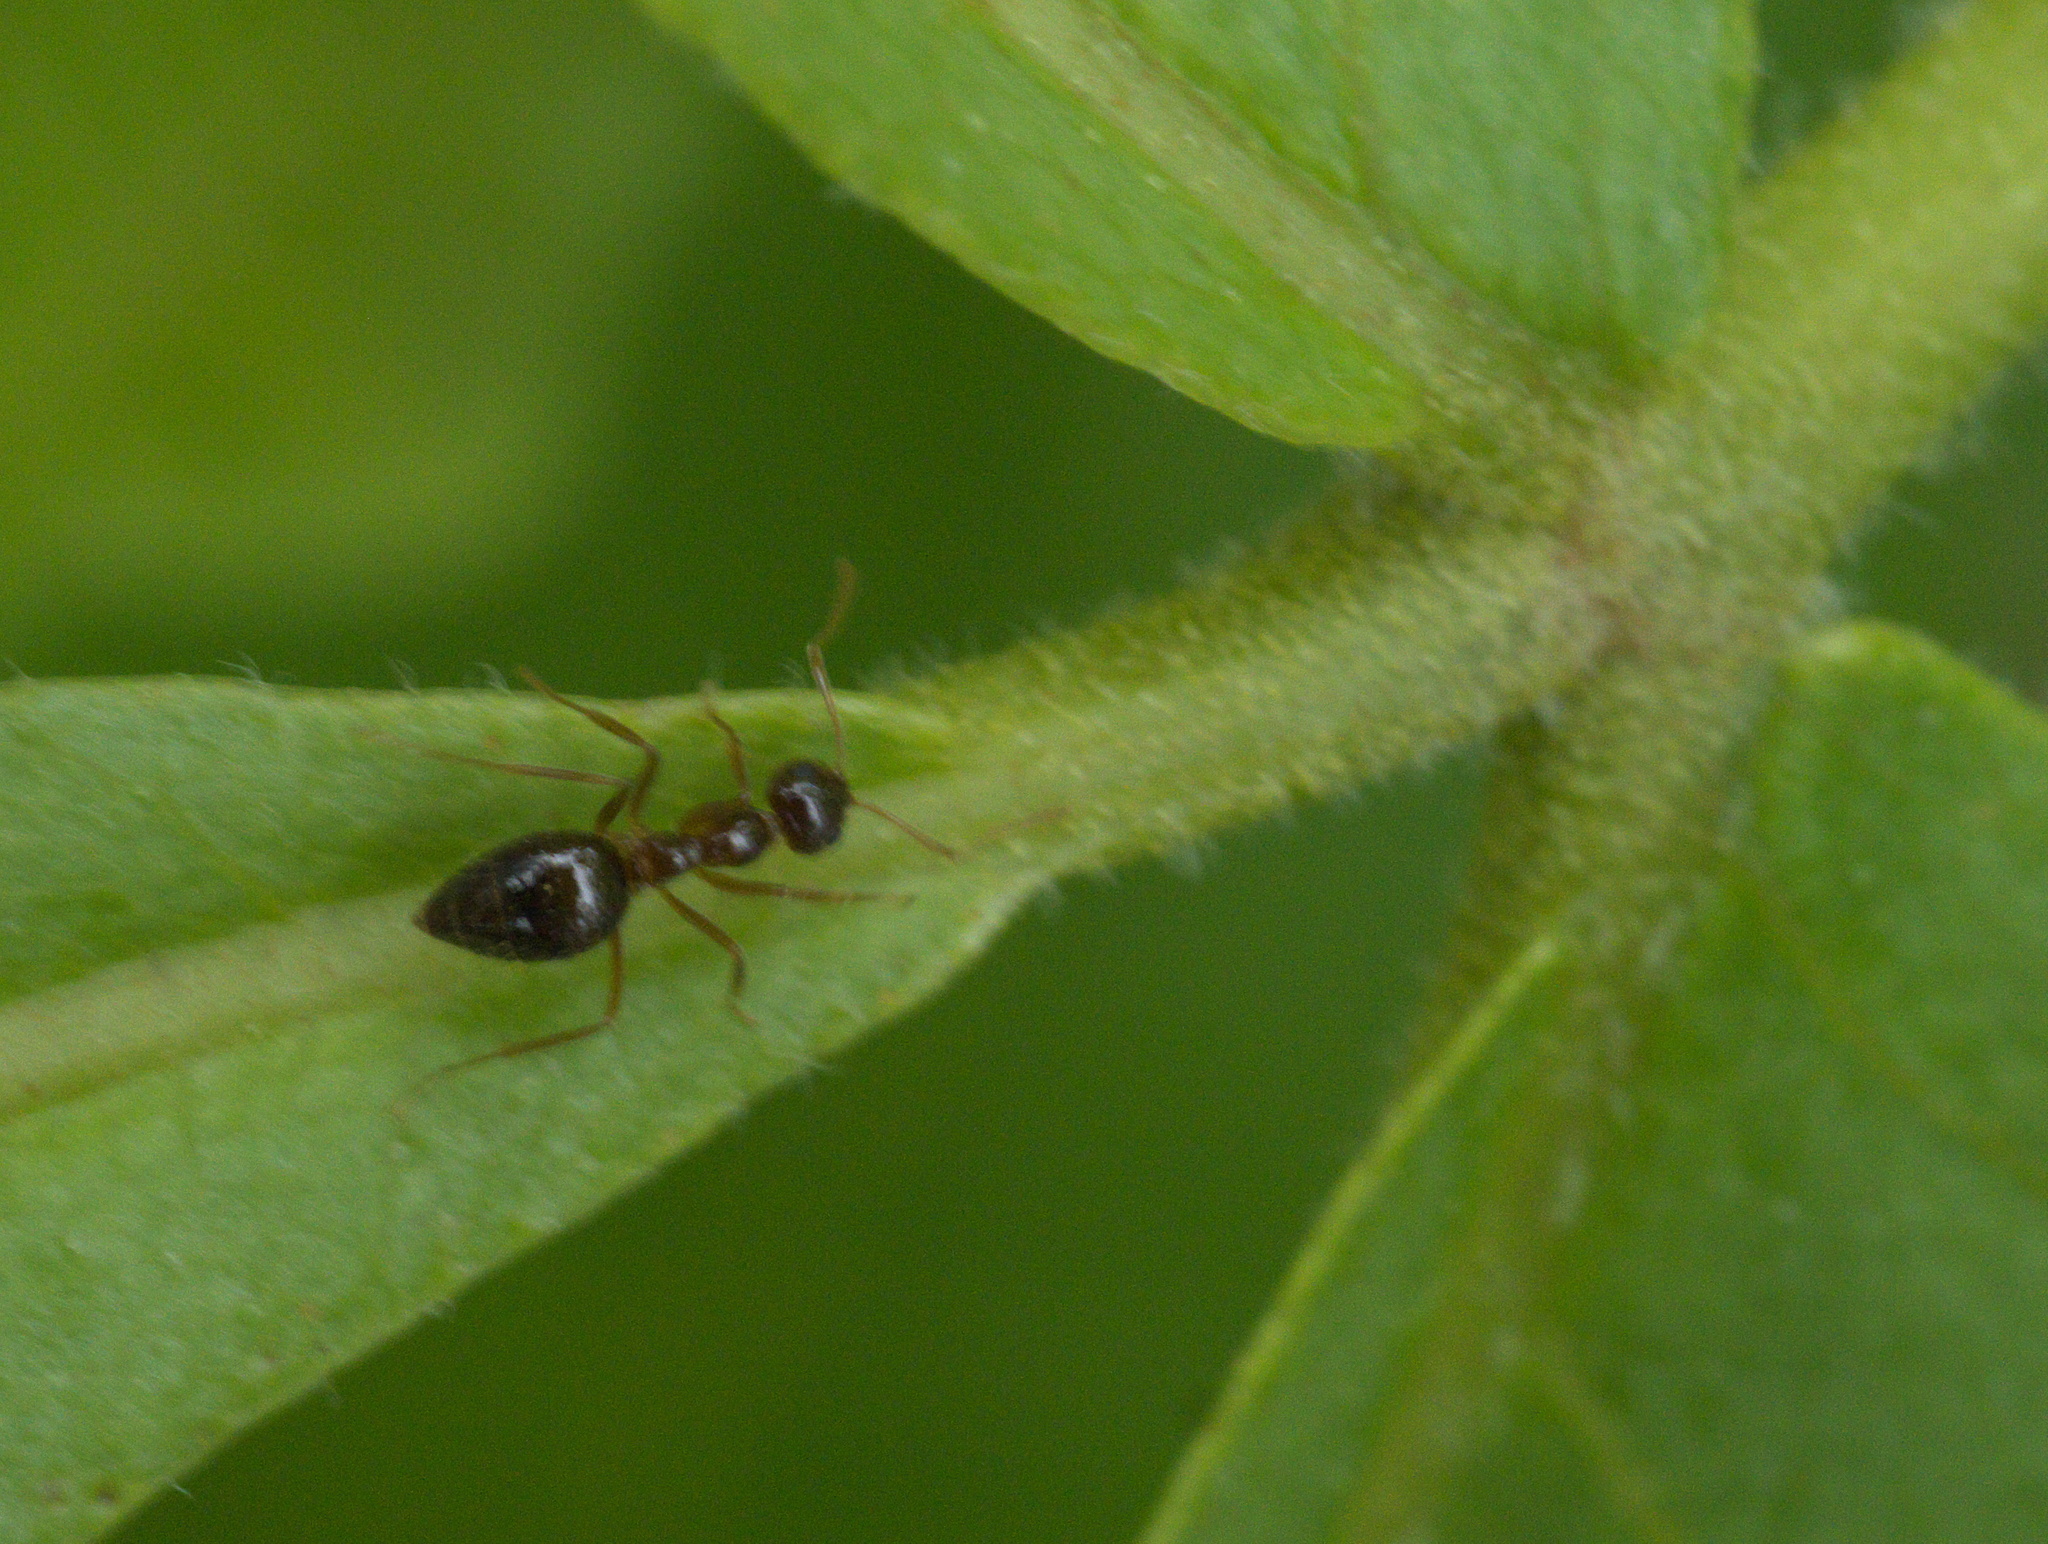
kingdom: Animalia
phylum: Arthropoda
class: Insecta
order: Hymenoptera
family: Formicidae
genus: Prenolepis
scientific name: Prenolepis imparis
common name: Small honey ant
